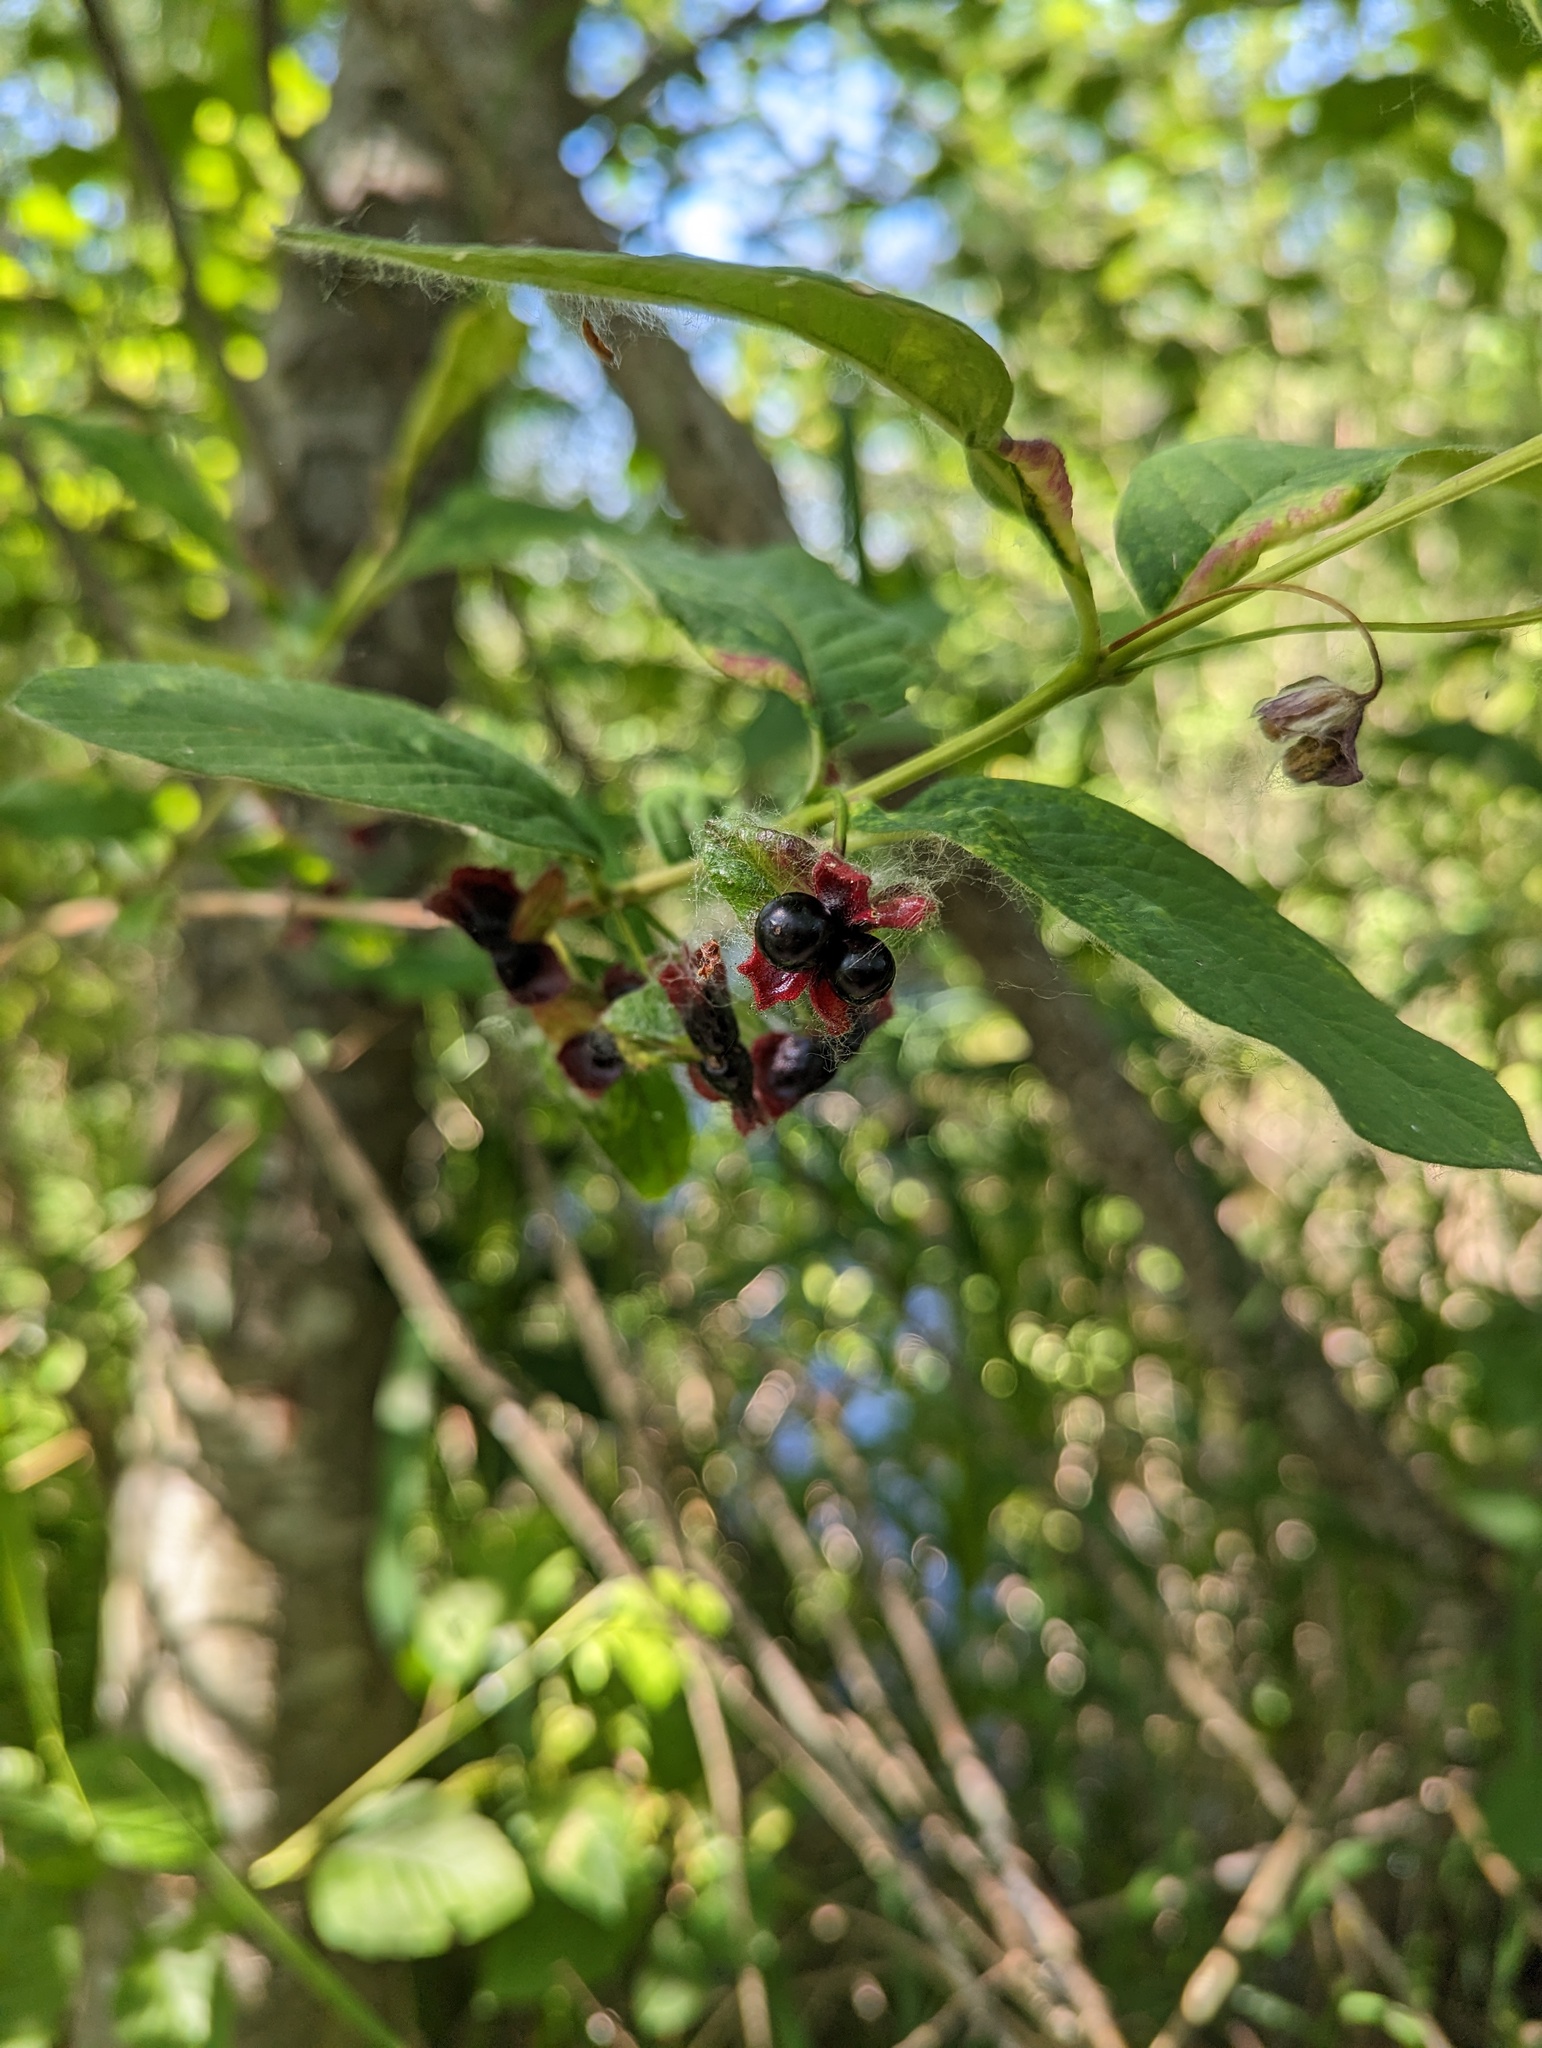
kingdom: Plantae
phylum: Tracheophyta
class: Magnoliopsida
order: Dipsacales
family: Caprifoliaceae
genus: Lonicera
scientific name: Lonicera involucrata
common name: Californian honeysuckle
